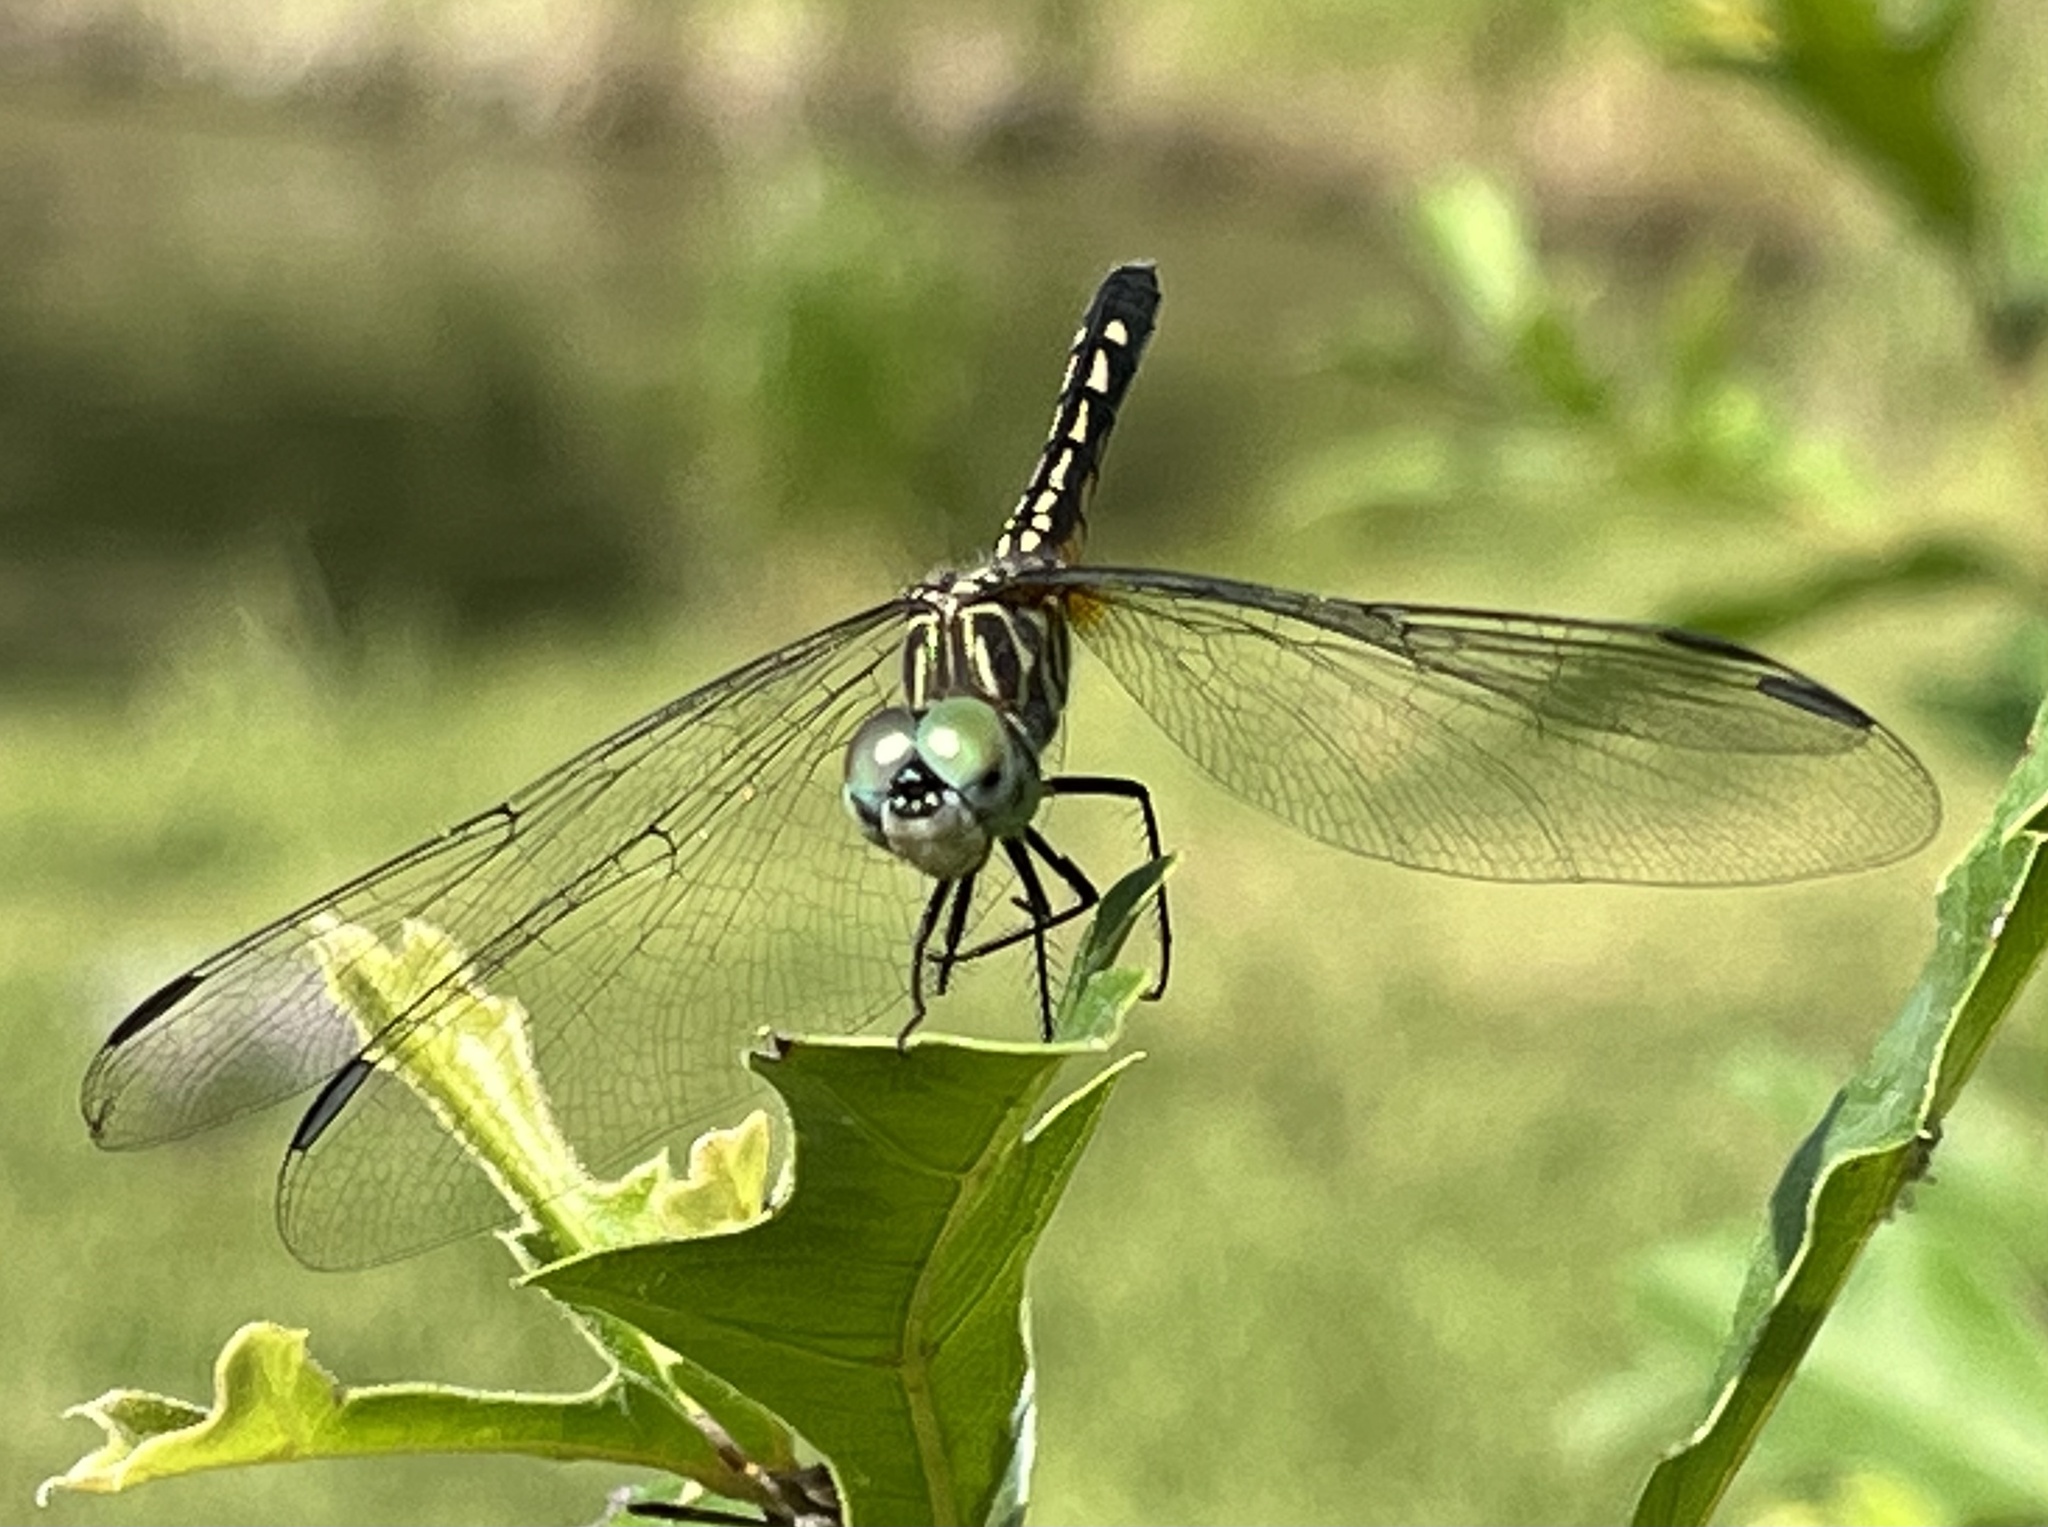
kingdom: Animalia
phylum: Arthropoda
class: Insecta
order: Odonata
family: Libellulidae
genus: Pachydiplax
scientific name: Pachydiplax longipennis
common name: Blue dasher
